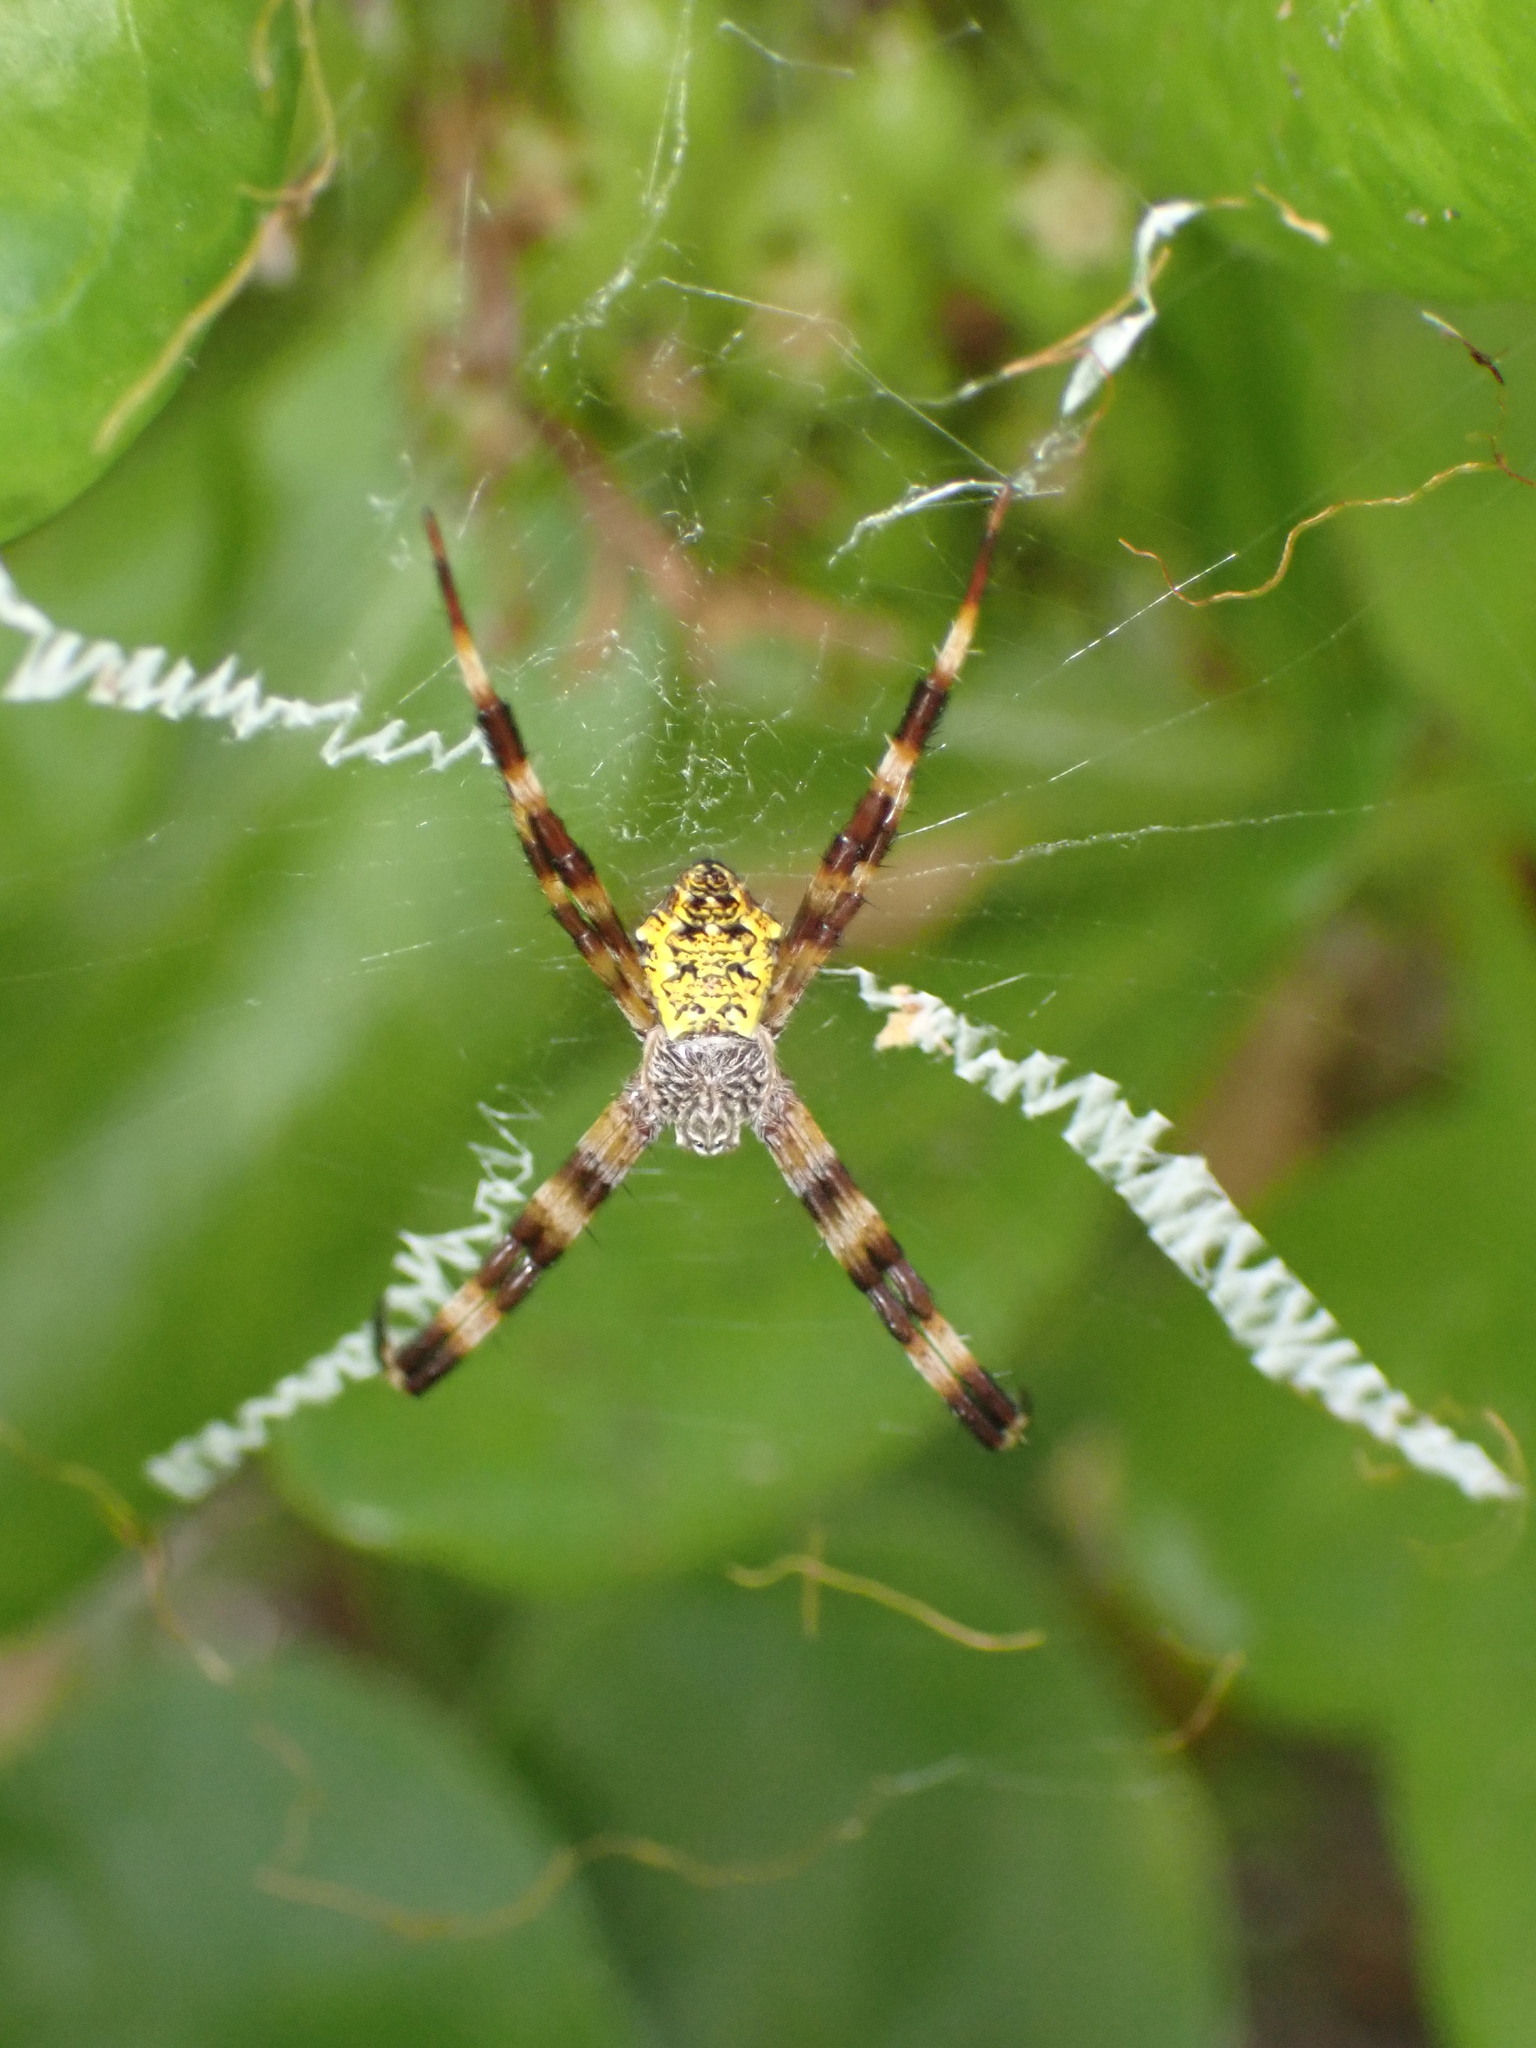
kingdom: Animalia
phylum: Arthropoda
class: Arachnida
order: Araneae
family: Araneidae
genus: Argiope
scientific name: Argiope appensa
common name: Garden spider
